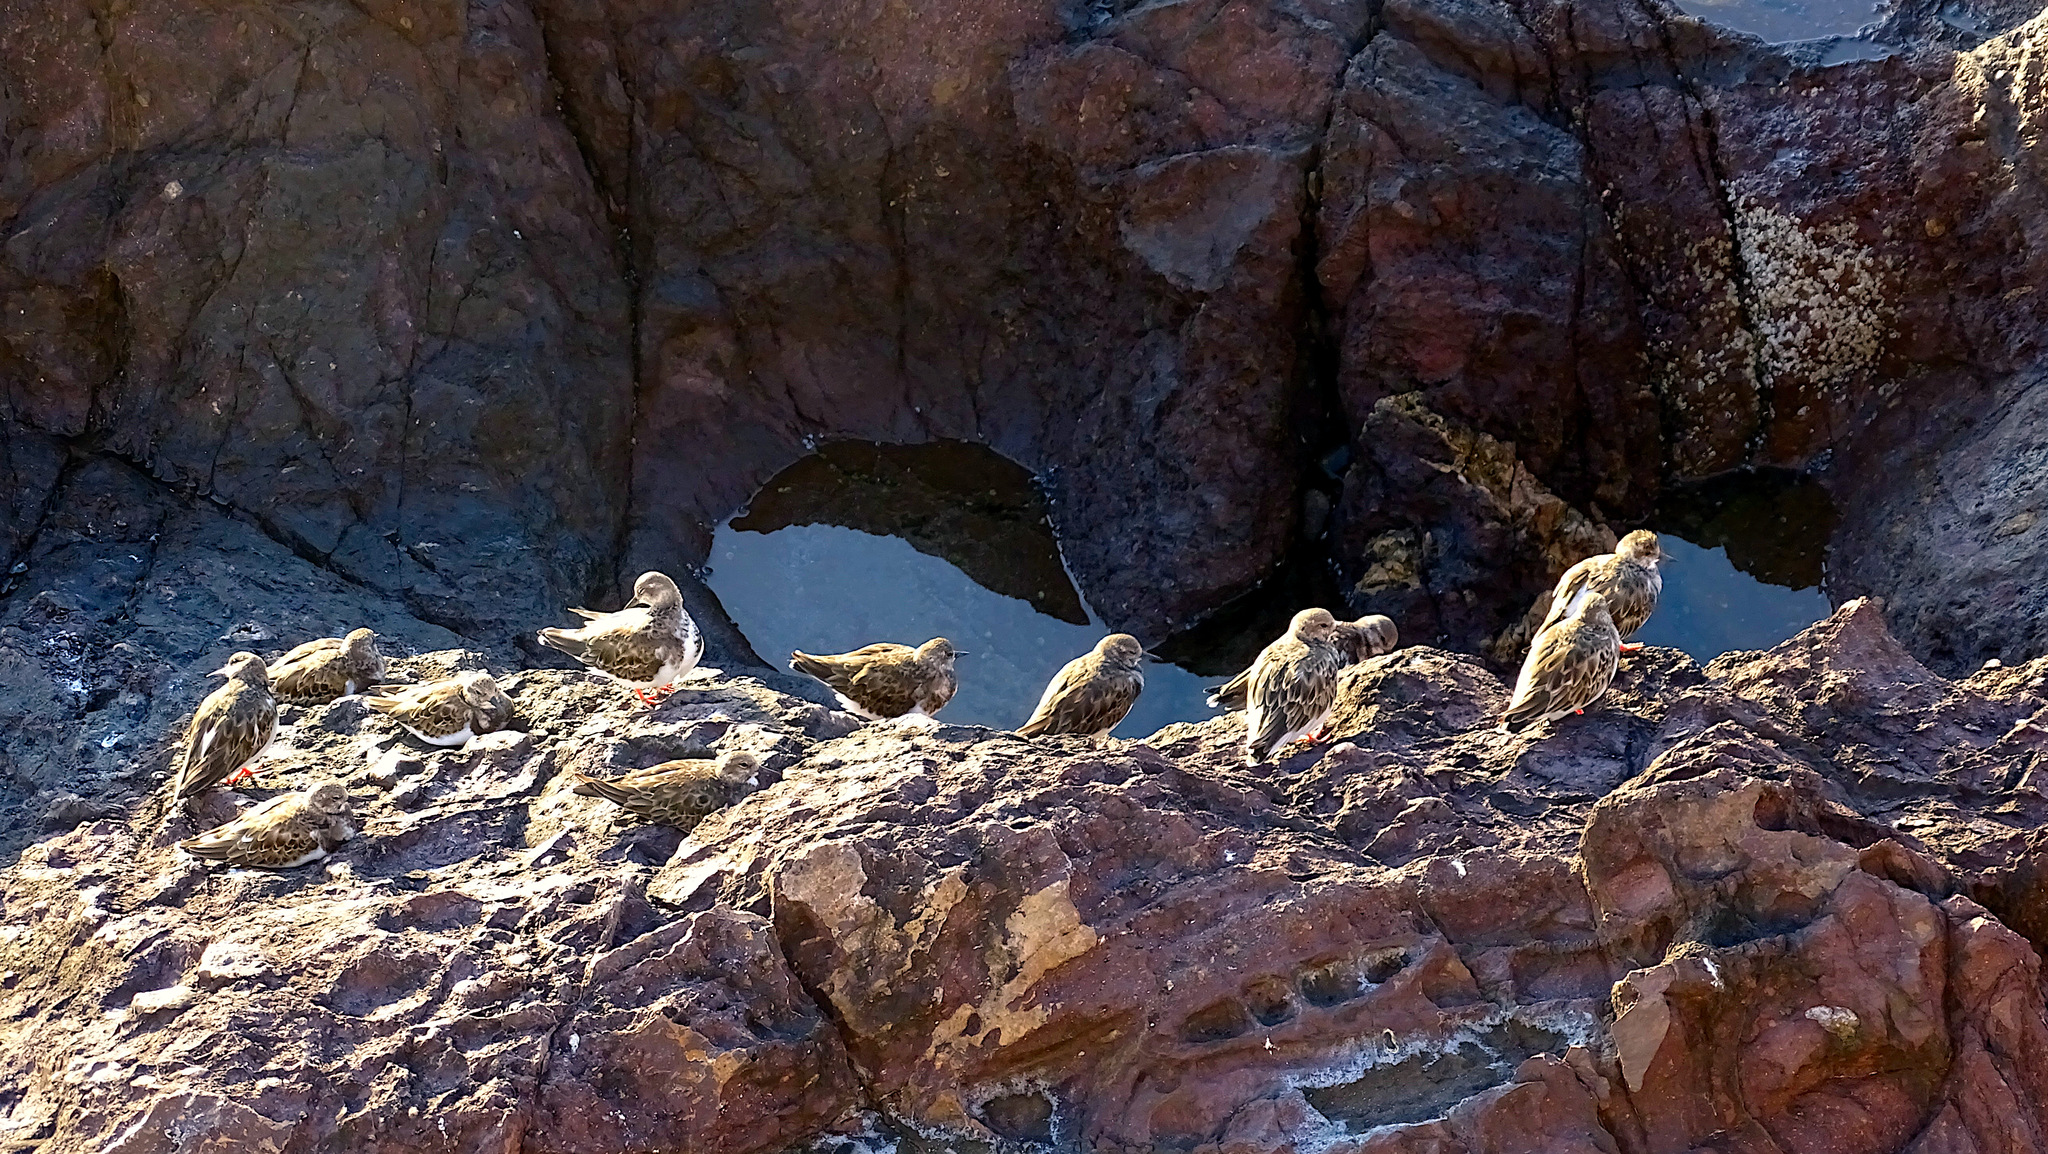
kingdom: Animalia
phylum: Chordata
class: Aves
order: Charadriiformes
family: Scolopacidae
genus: Arenaria
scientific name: Arenaria interpres
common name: Ruddy turnstone
